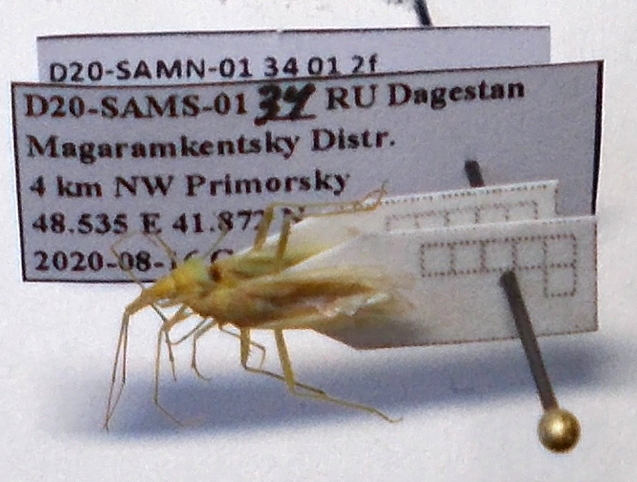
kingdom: Animalia
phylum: Arthropoda
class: Insecta
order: Hemiptera
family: Miridae
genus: Stenodema
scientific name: Stenodema calcarata
